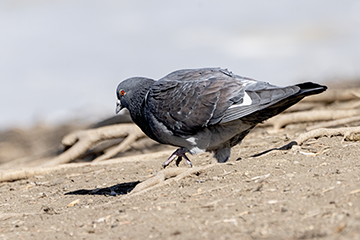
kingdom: Animalia
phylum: Chordata
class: Aves
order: Columbiformes
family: Columbidae
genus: Columba
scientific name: Columba livia
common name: Rock pigeon
